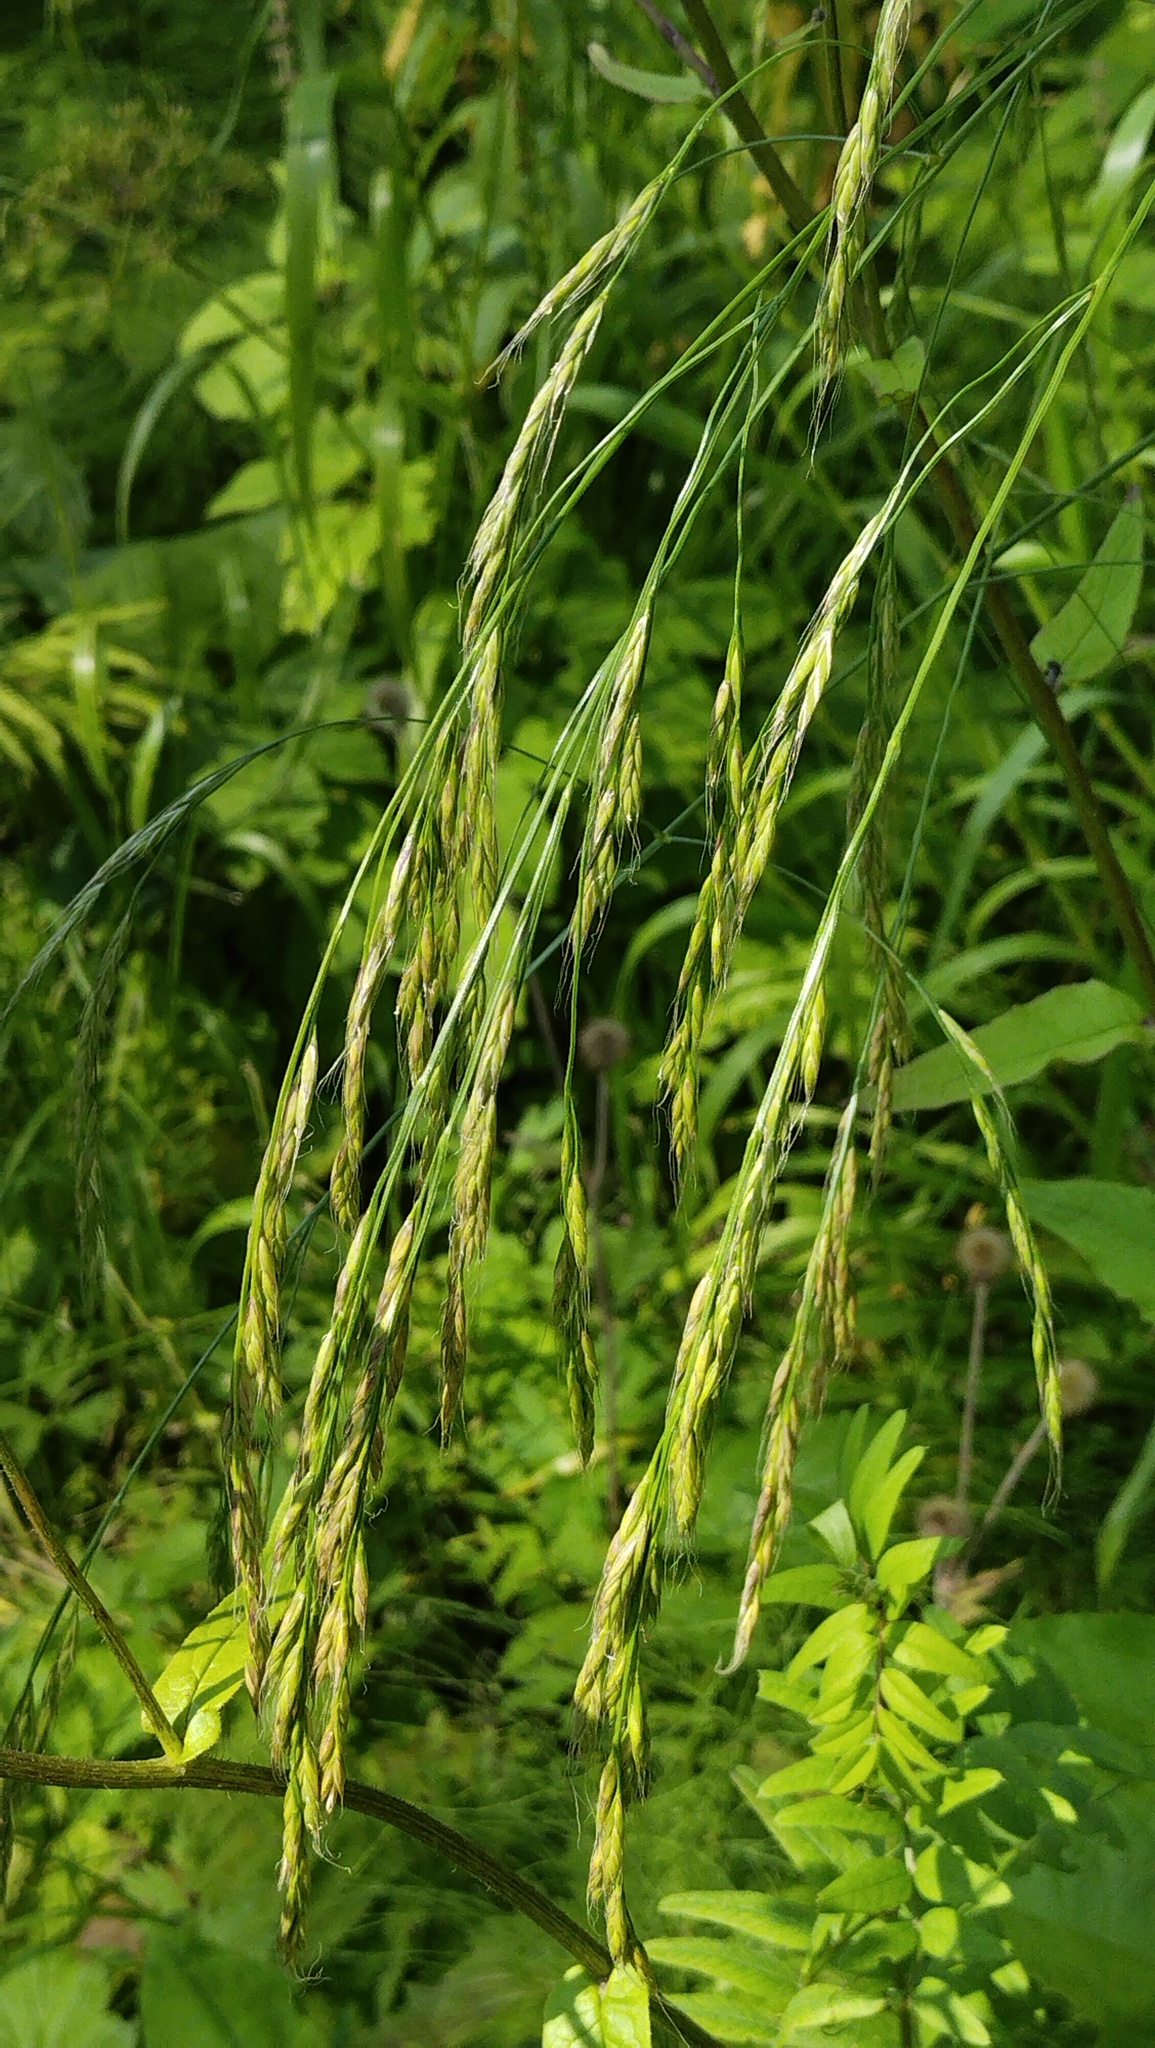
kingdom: Plantae
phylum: Tracheophyta
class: Liliopsida
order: Poales
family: Poaceae
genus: Lolium
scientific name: Lolium giganteum
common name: Giant fescue
